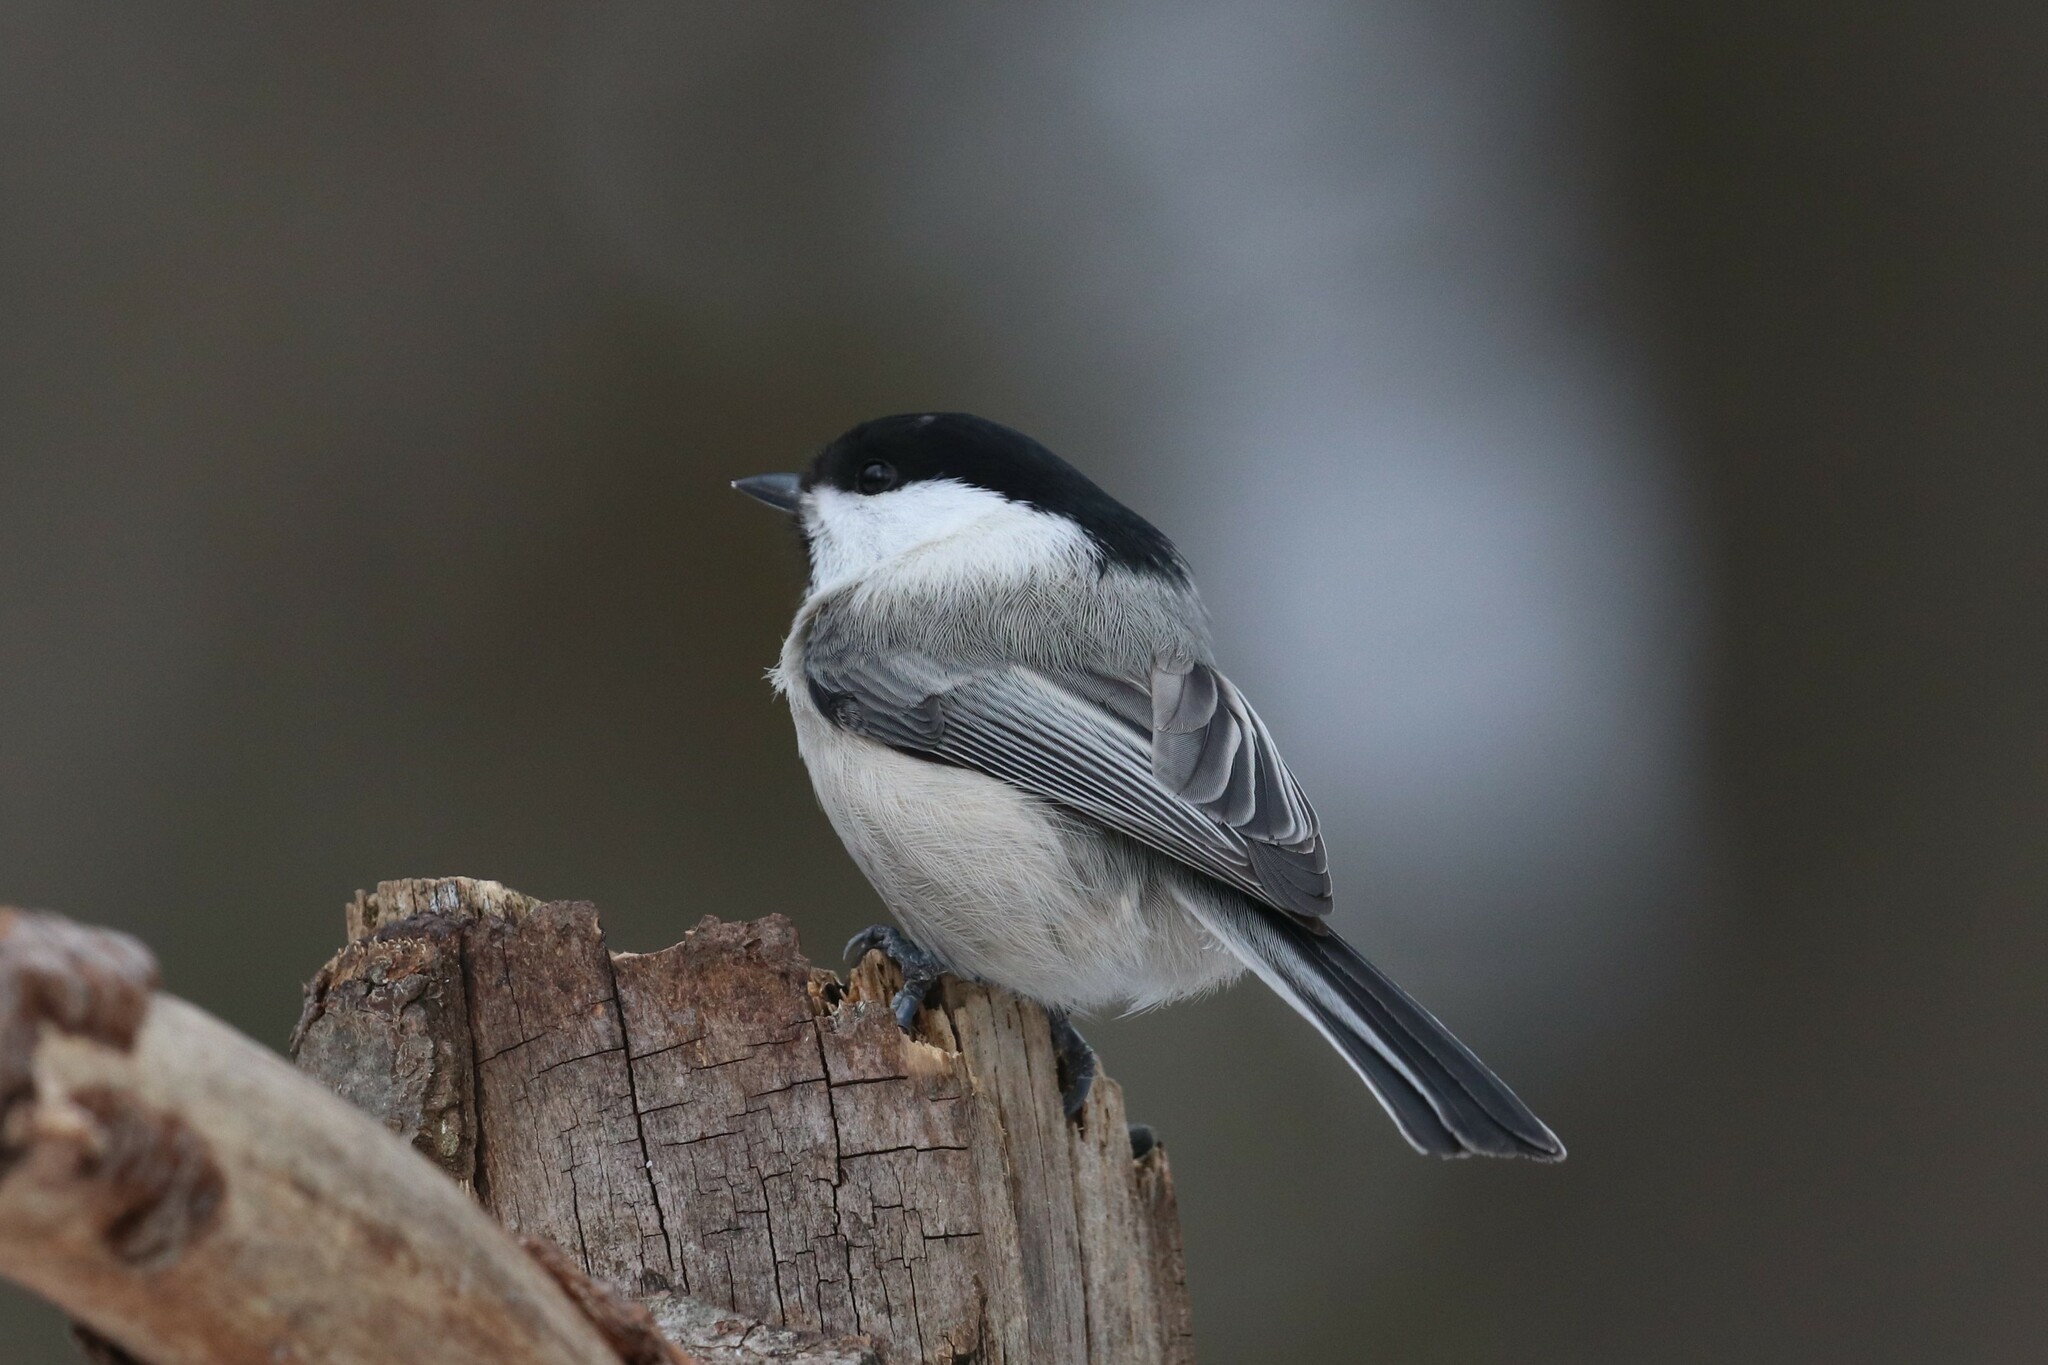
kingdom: Animalia
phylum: Chordata
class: Aves
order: Passeriformes
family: Paridae
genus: Poecile
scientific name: Poecile montanus
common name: Willow tit
